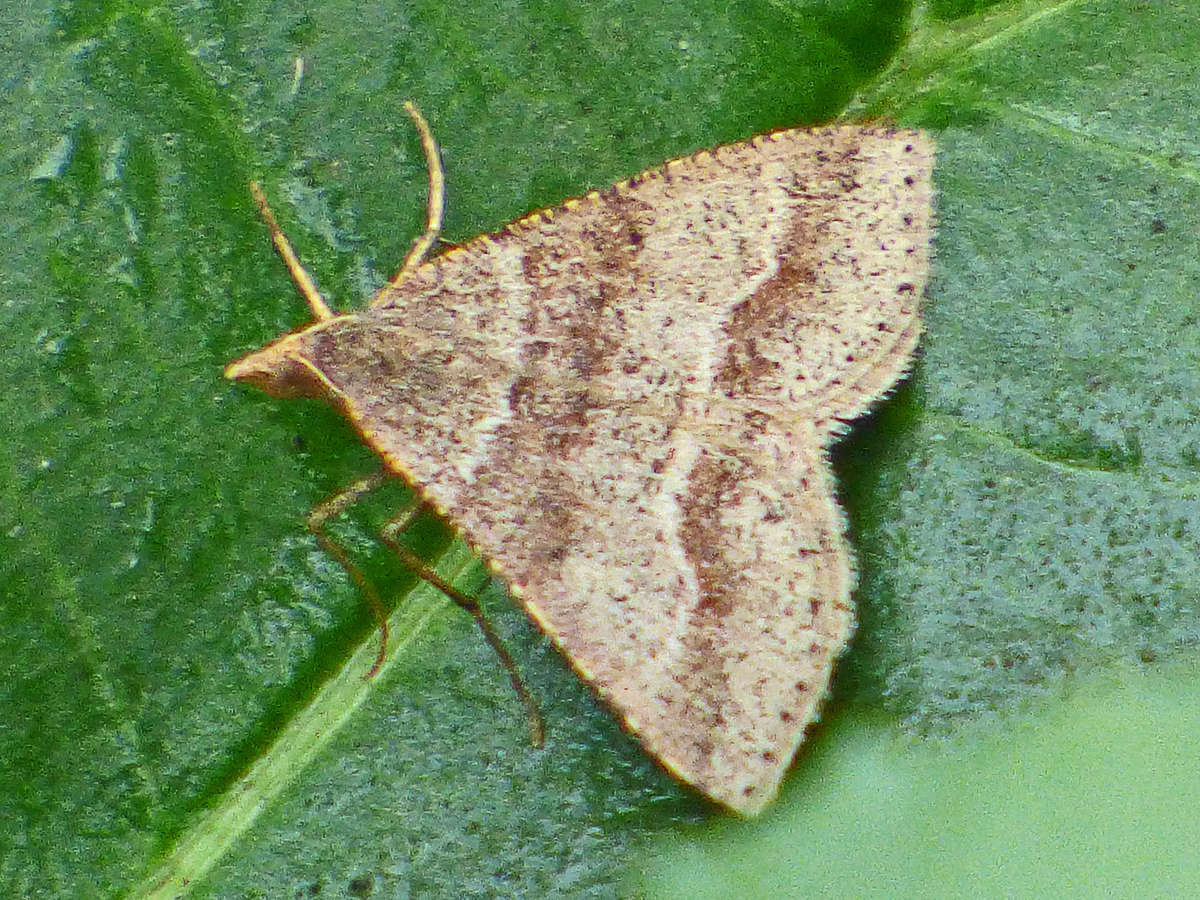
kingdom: Animalia
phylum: Arthropoda
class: Insecta
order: Lepidoptera
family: Geometridae
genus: Parosteodes
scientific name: Parosteodes fictiliaria
